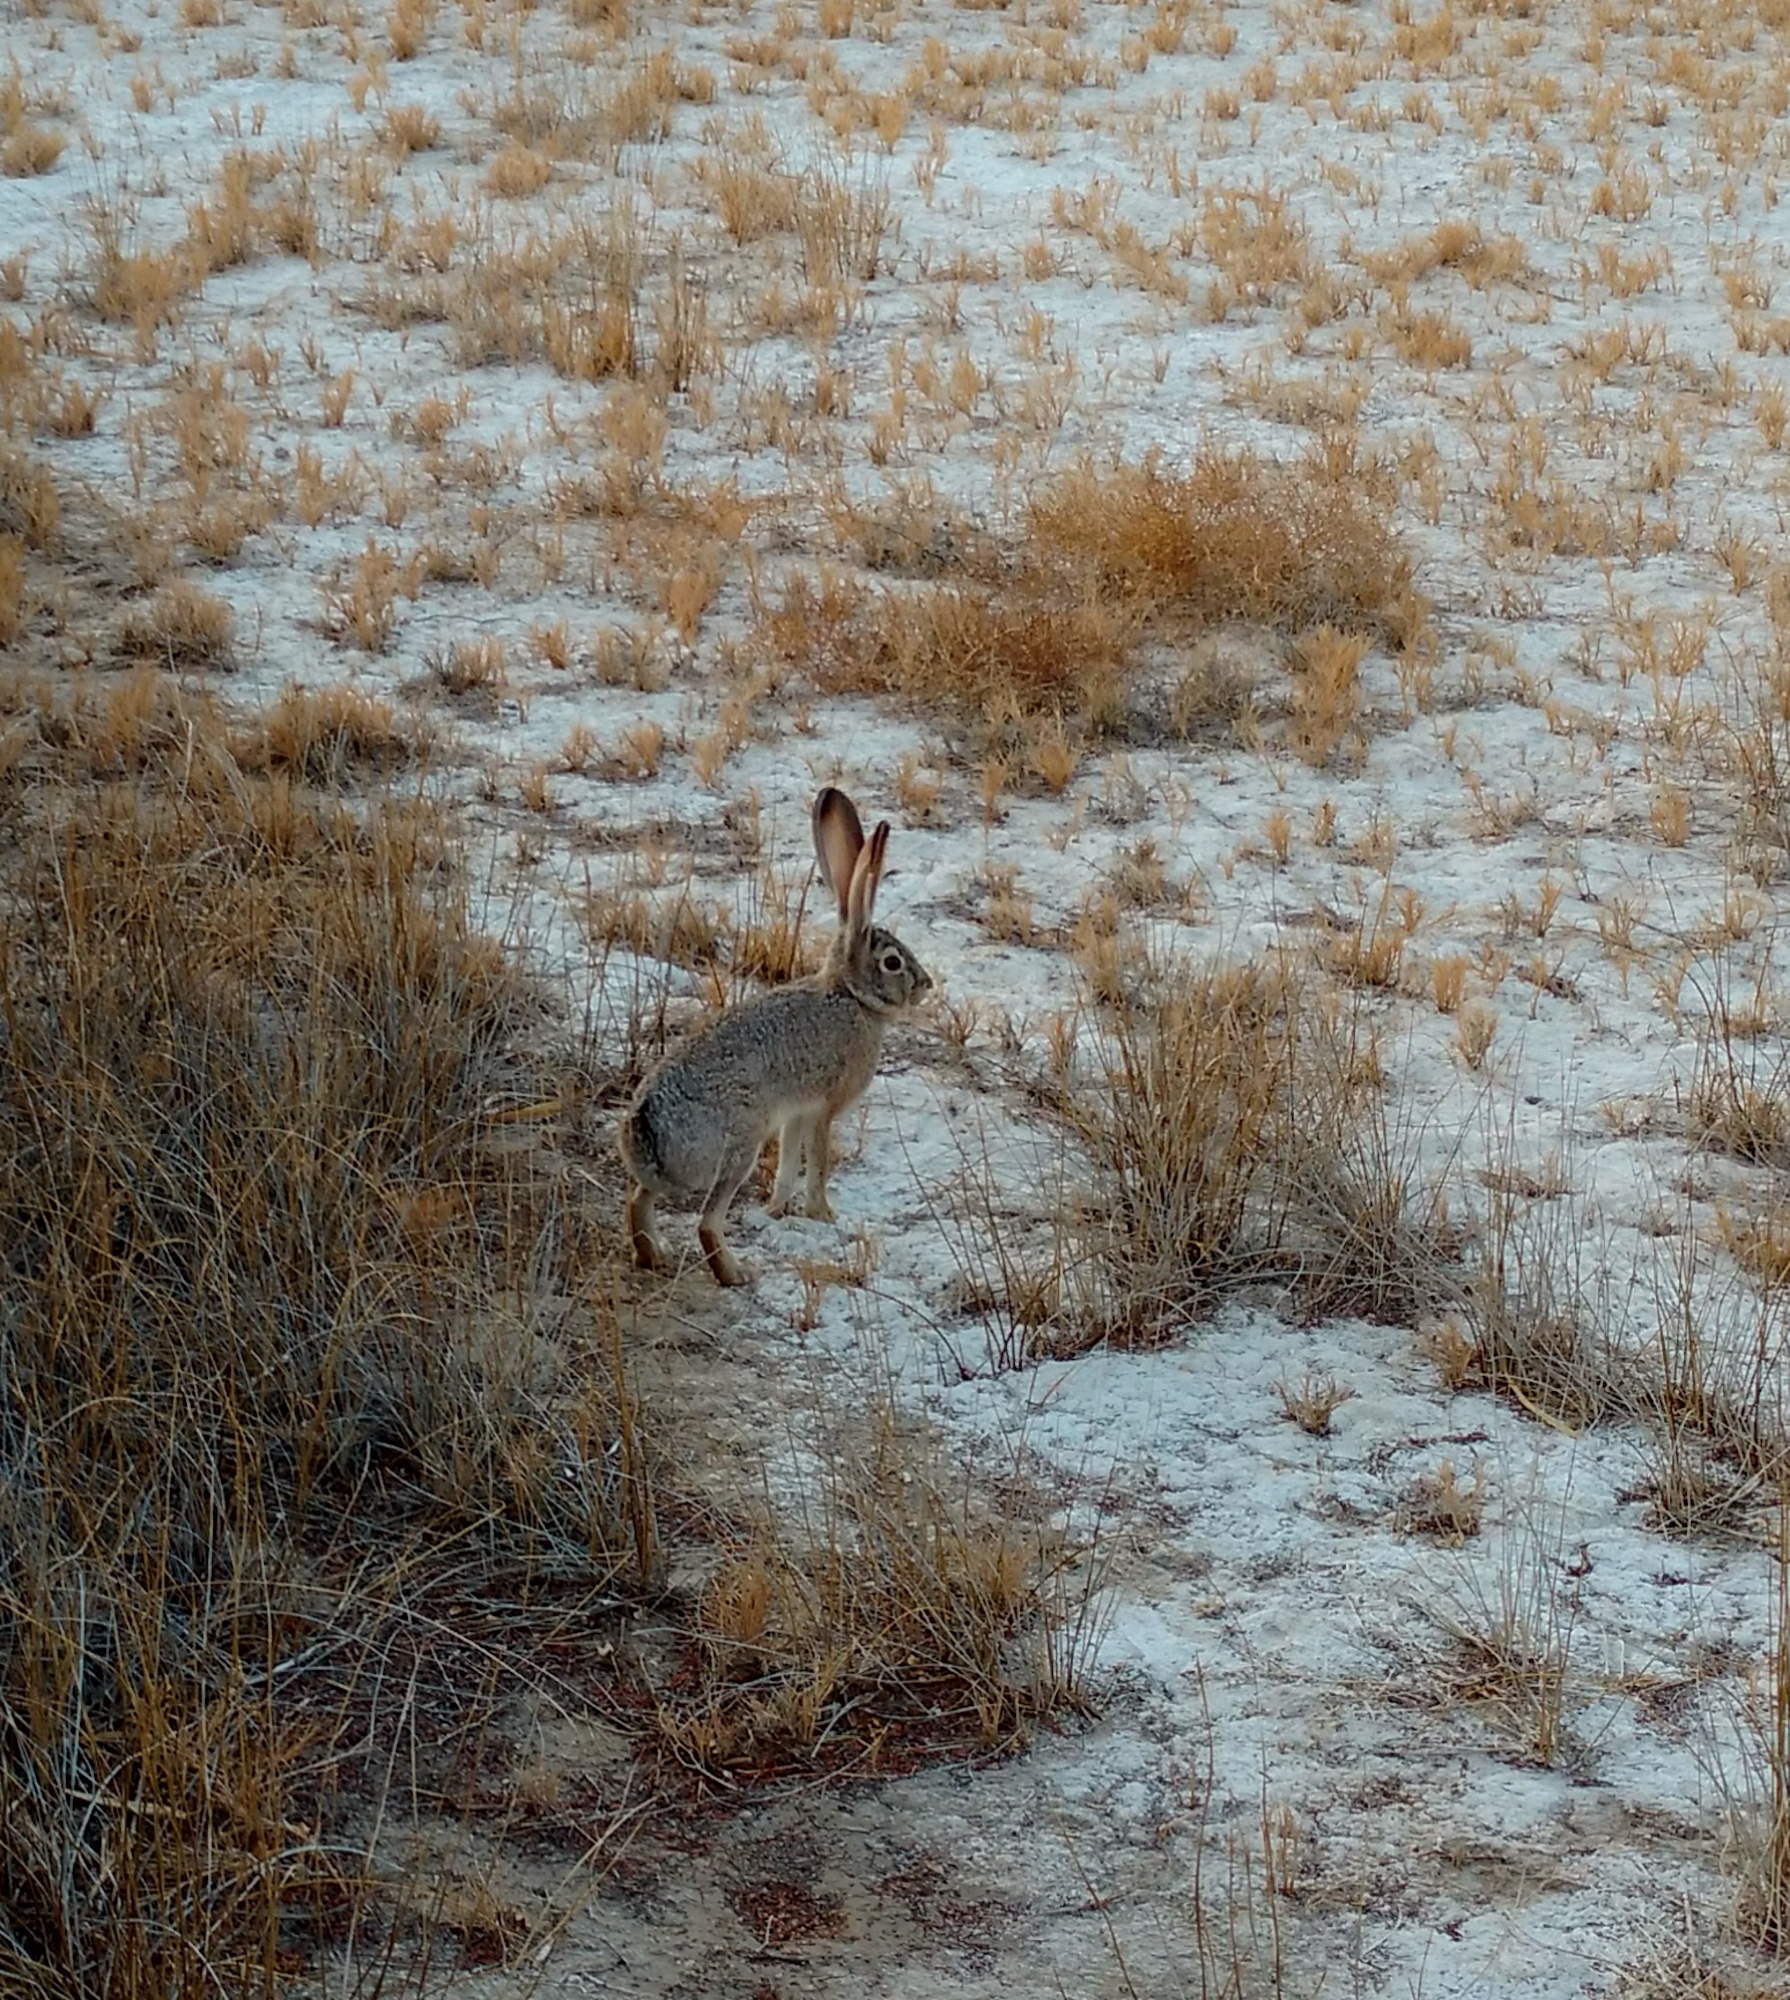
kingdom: Animalia
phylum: Chordata
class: Mammalia
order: Lagomorpha
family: Leporidae
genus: Lepus
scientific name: Lepus californicus
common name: Black-tailed jackrabbit
